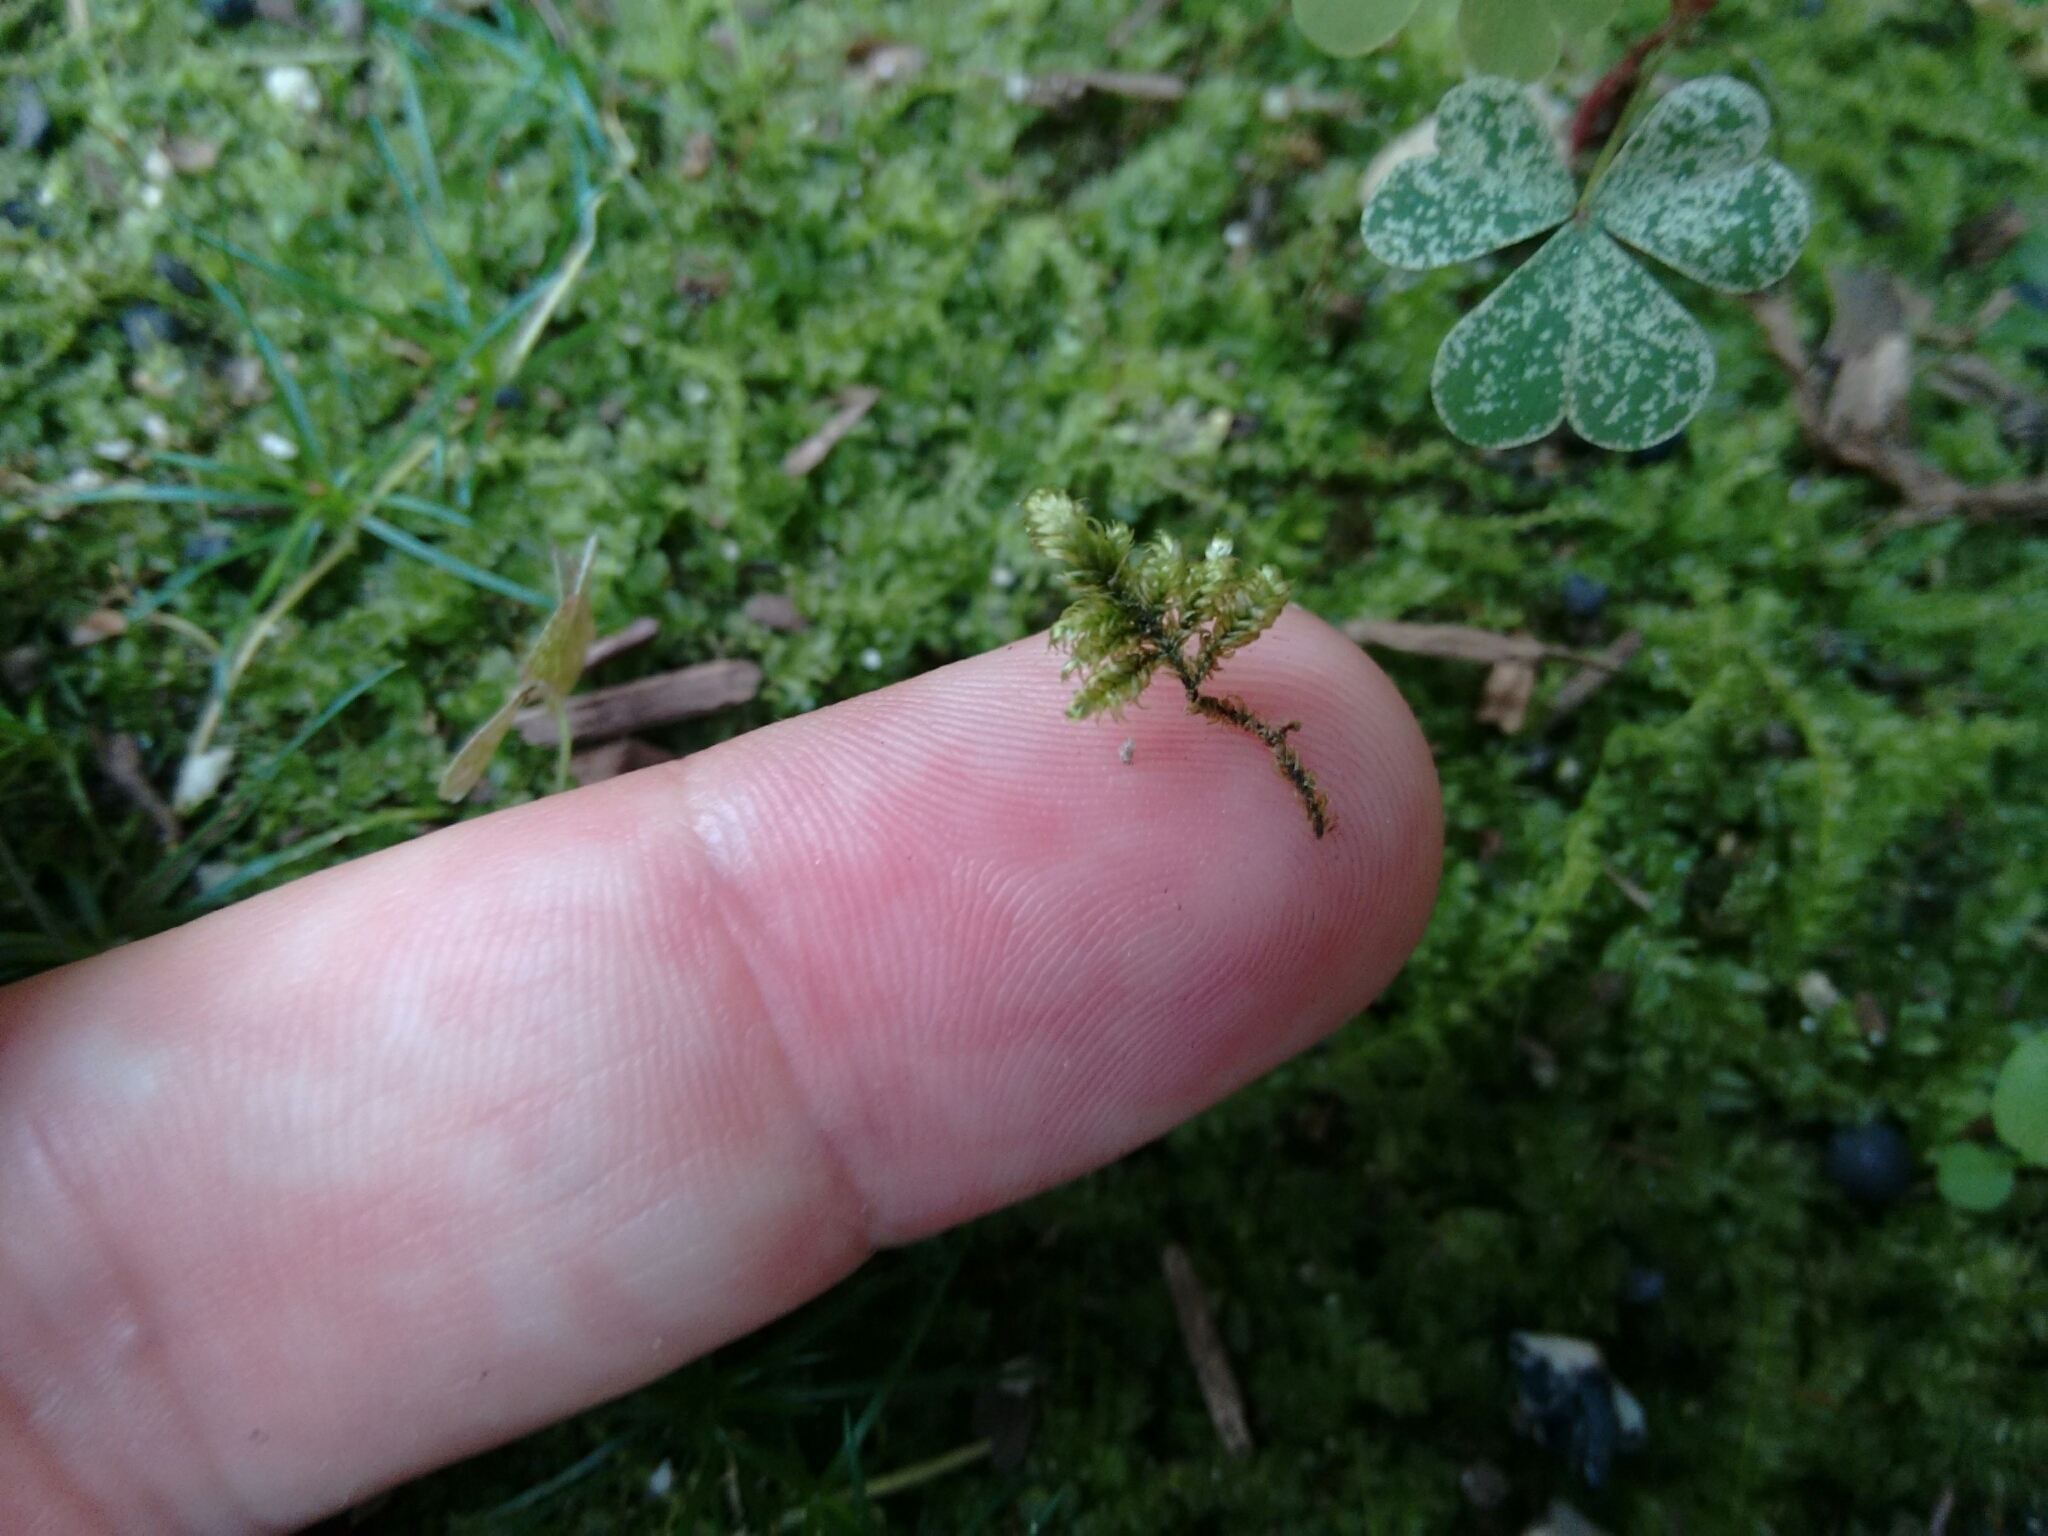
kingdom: Plantae
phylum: Bryophyta
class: Bryopsida
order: Hypnales
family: Callicladiaceae
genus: Callicladium
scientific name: Callicladium imponens
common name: Brocade moss
